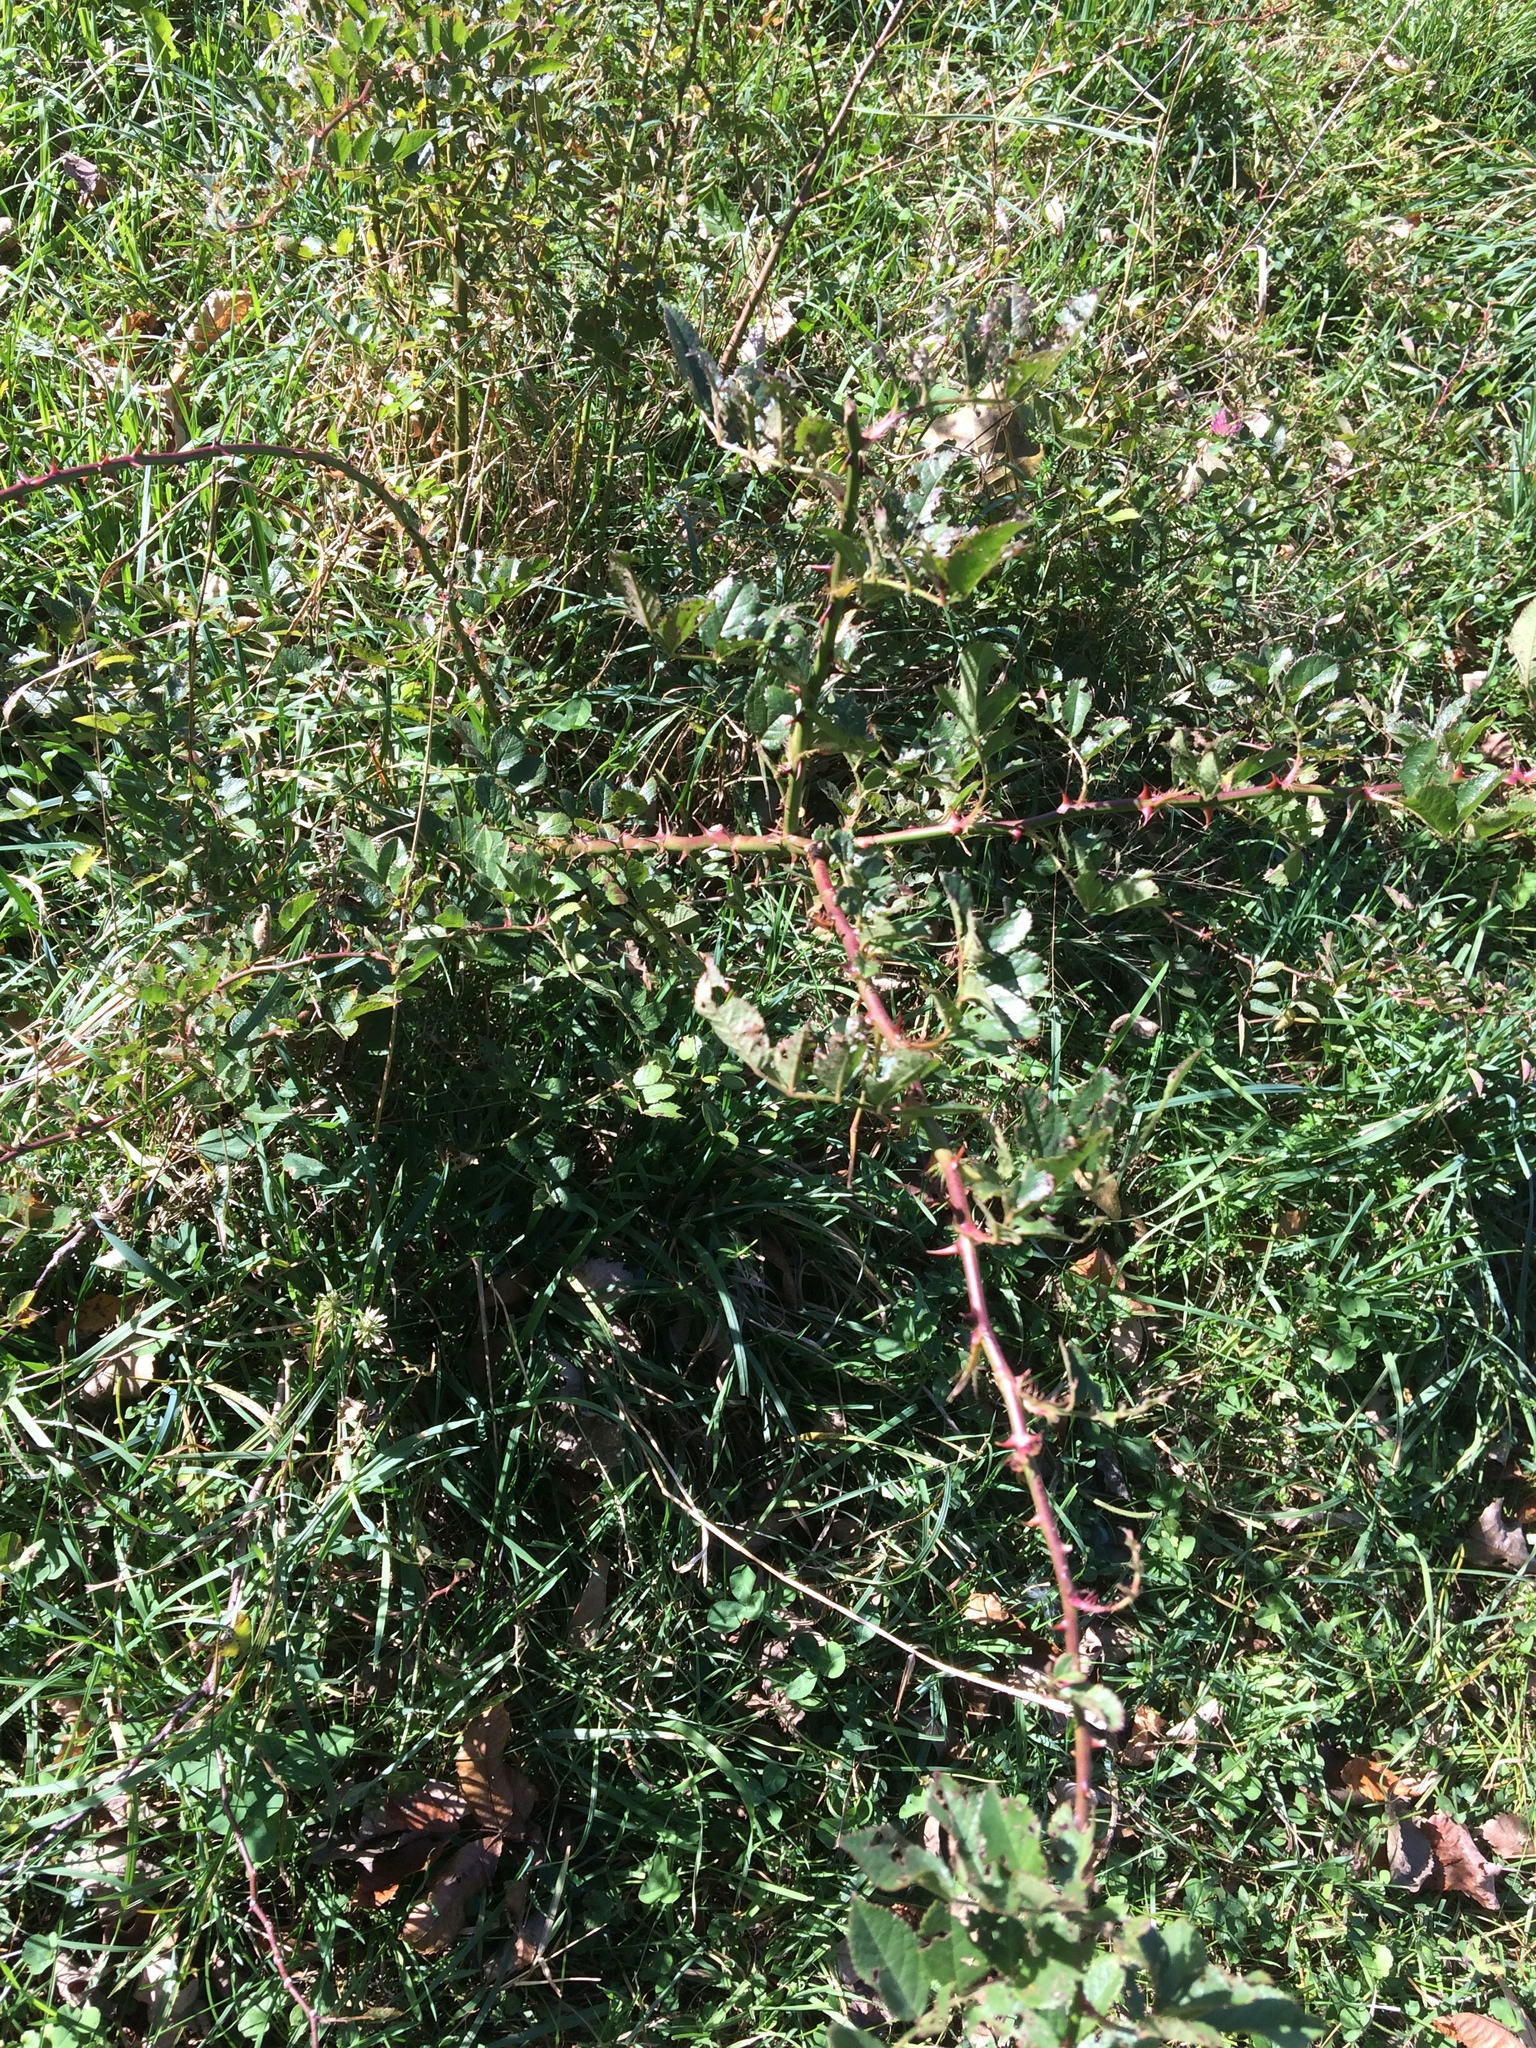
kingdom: Plantae
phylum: Tracheophyta
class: Magnoliopsida
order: Rosales
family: Rosaceae
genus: Rosa
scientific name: Rosa multiflora
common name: Multiflora rose
